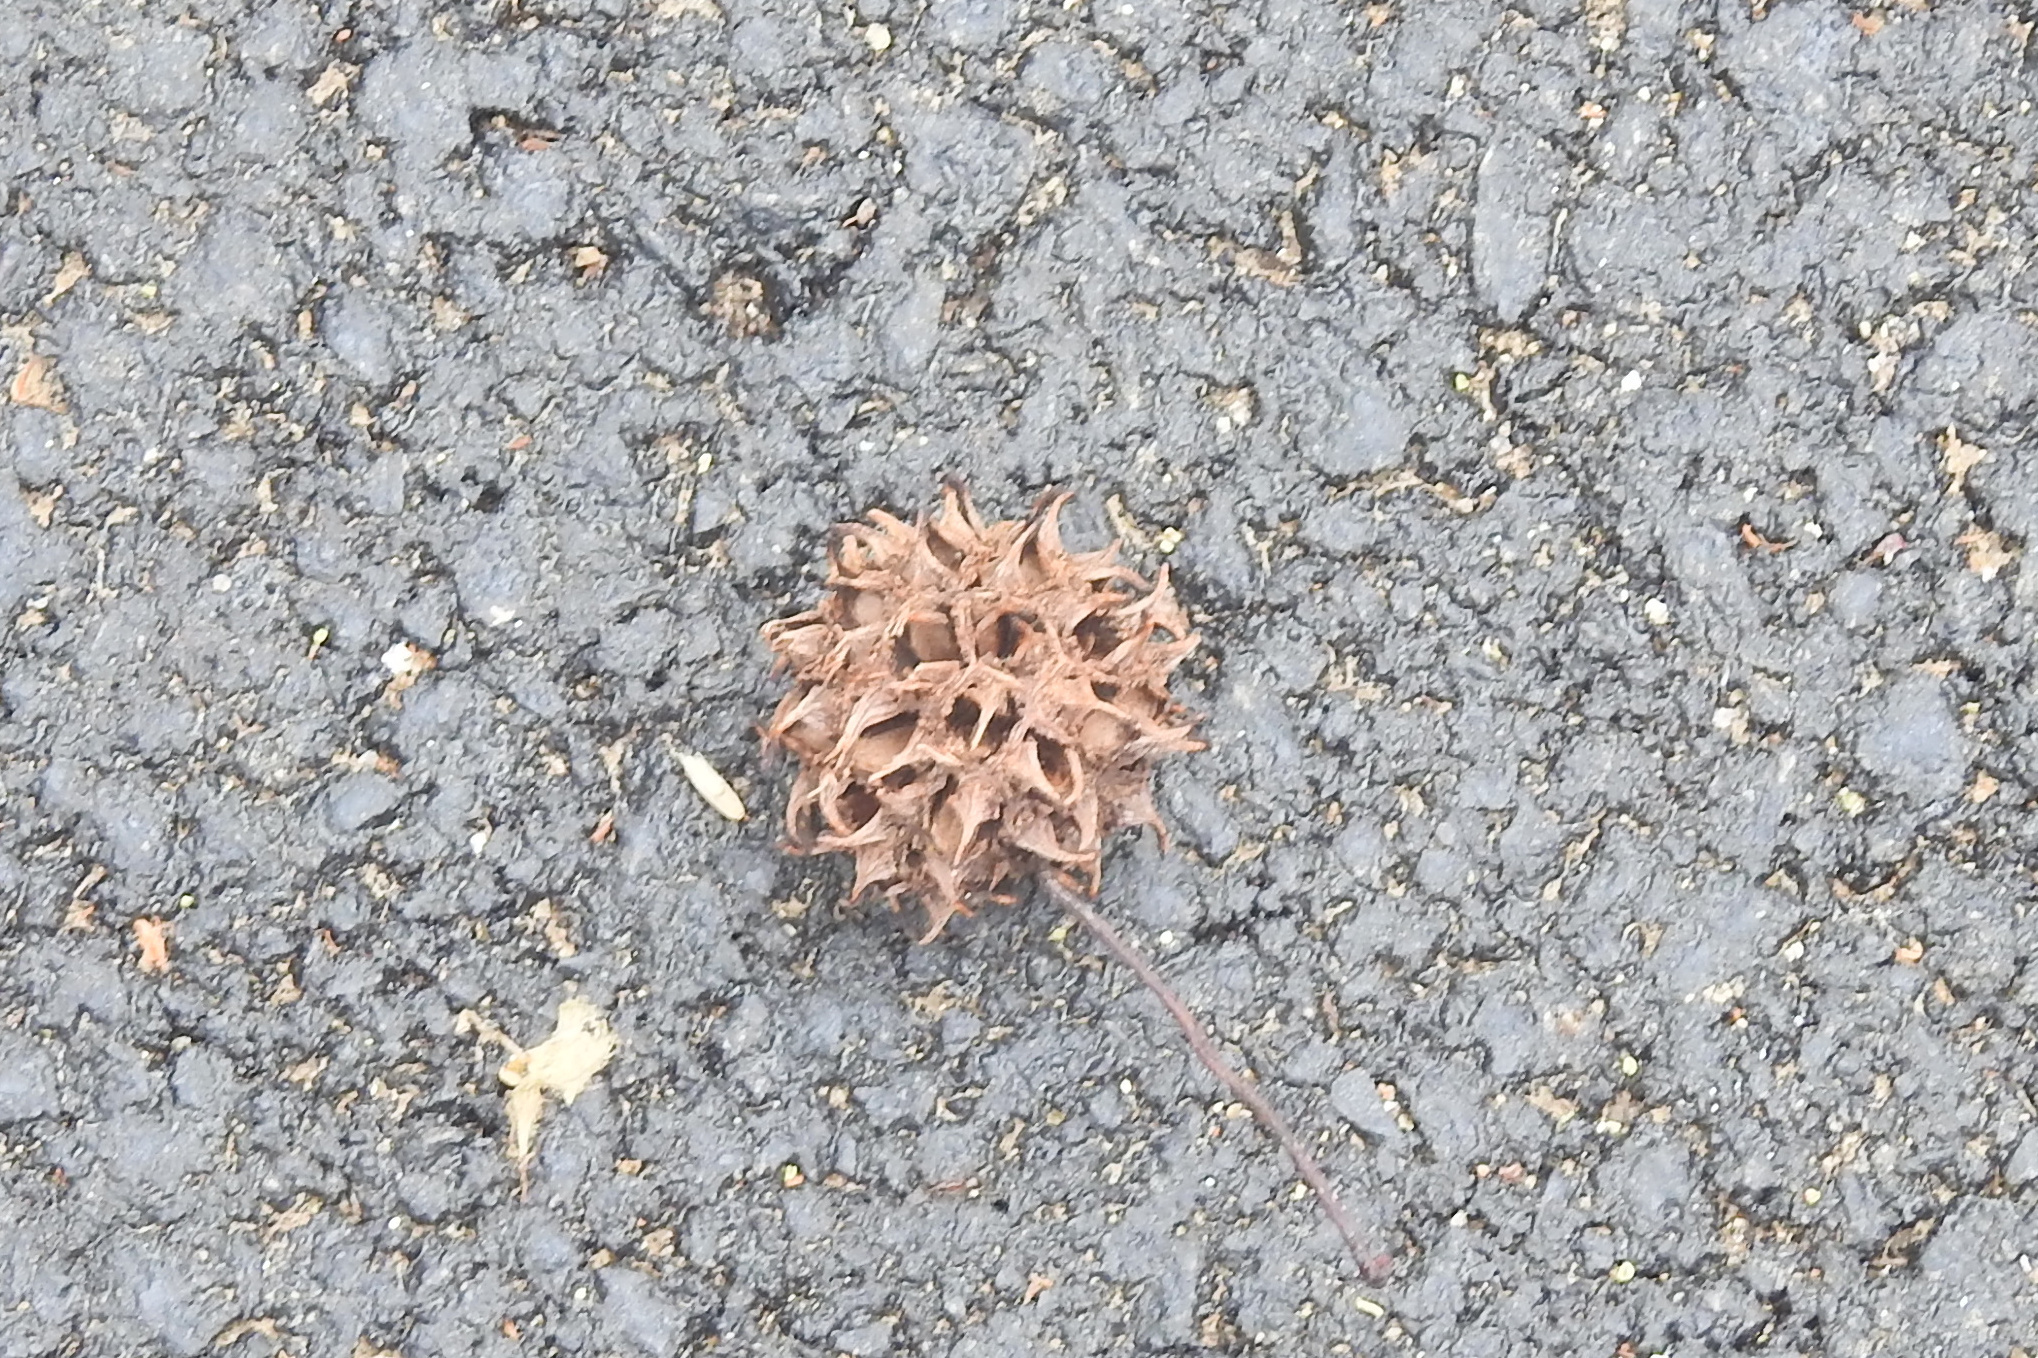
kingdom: Plantae
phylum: Tracheophyta
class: Magnoliopsida
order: Saxifragales
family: Altingiaceae
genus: Liquidambar
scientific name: Liquidambar styraciflua
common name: Sweet gum
